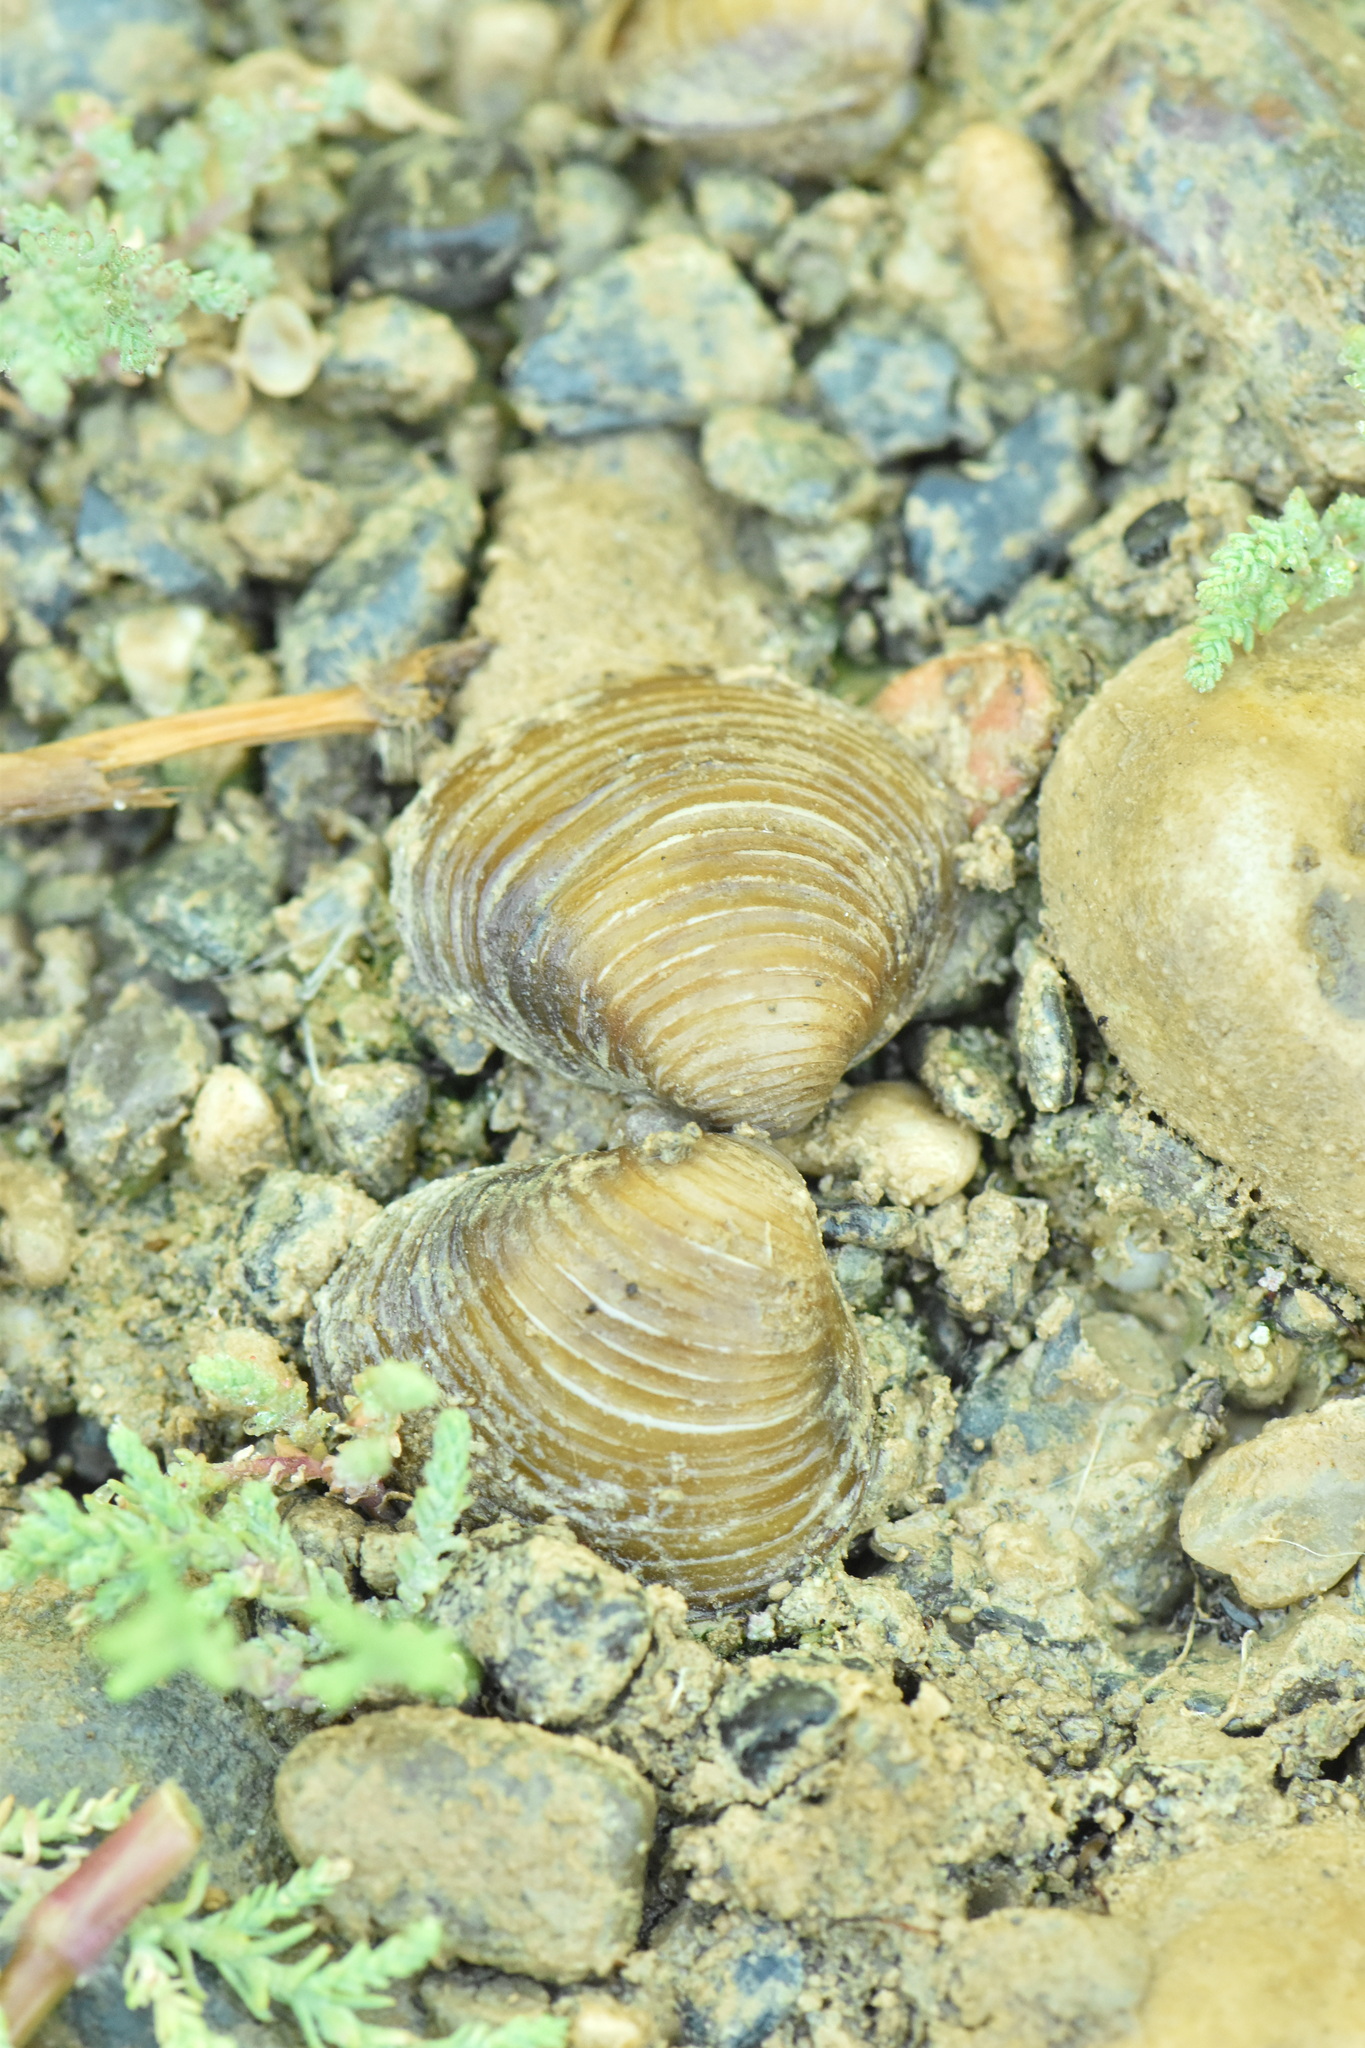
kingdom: Animalia
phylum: Mollusca
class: Bivalvia
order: Venerida
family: Cyrenidae
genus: Corbicula
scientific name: Corbicula fluminea
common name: Asian clam
